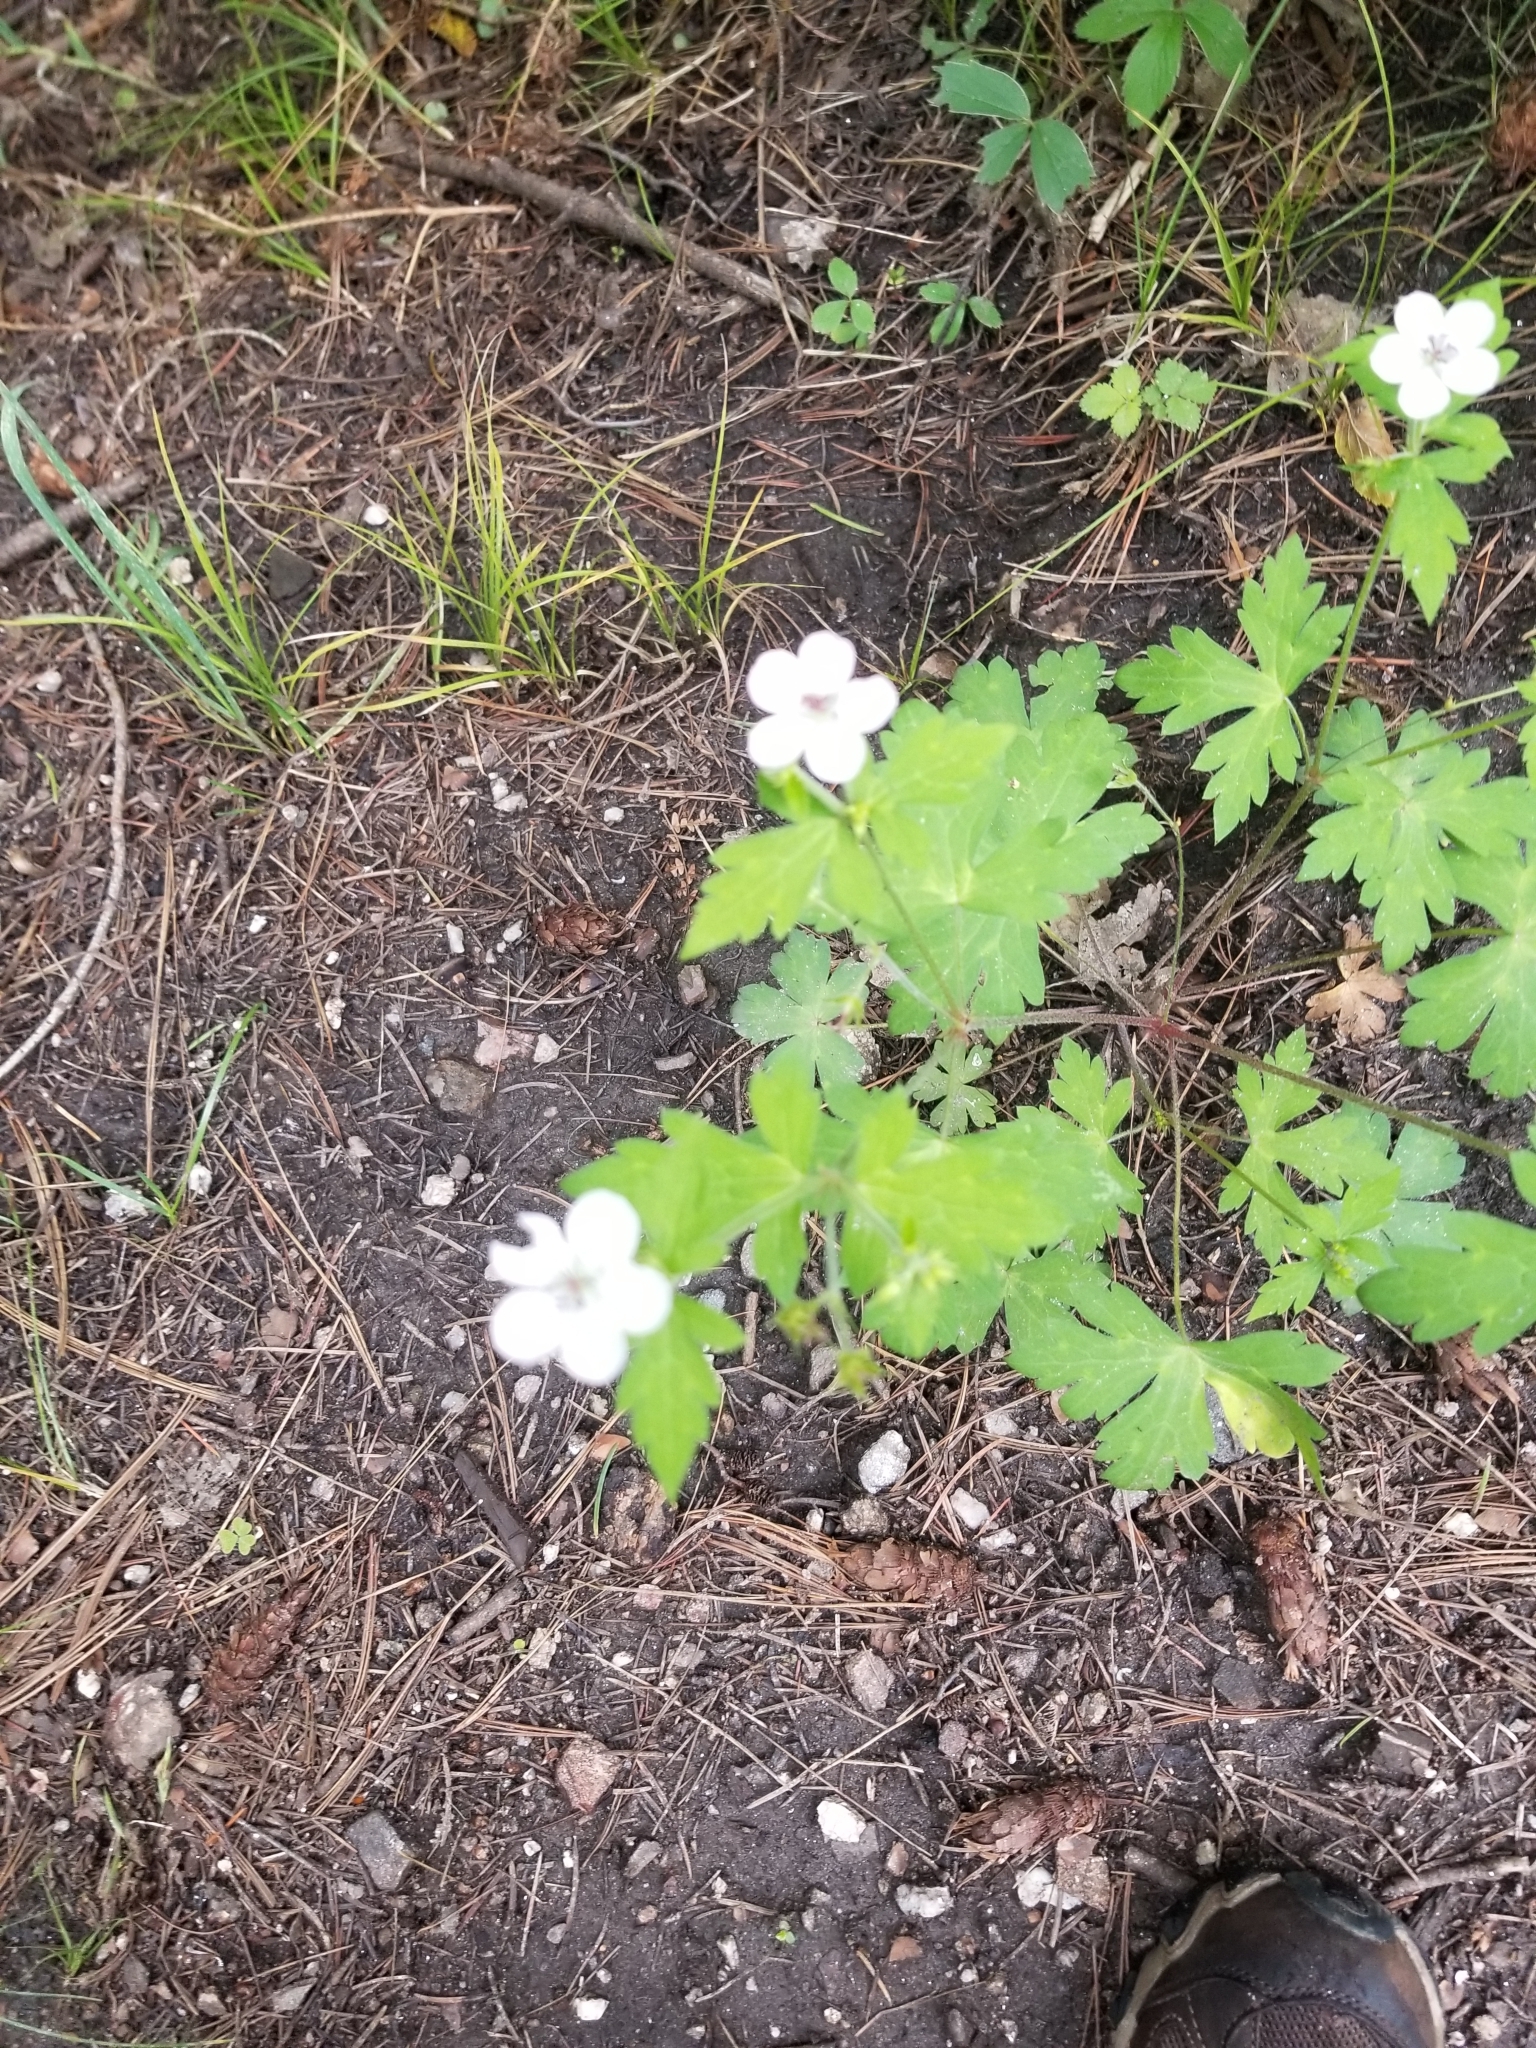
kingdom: Plantae
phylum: Tracheophyta
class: Magnoliopsida
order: Geraniales
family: Geraniaceae
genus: Geranium
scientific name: Geranium wislizeni
